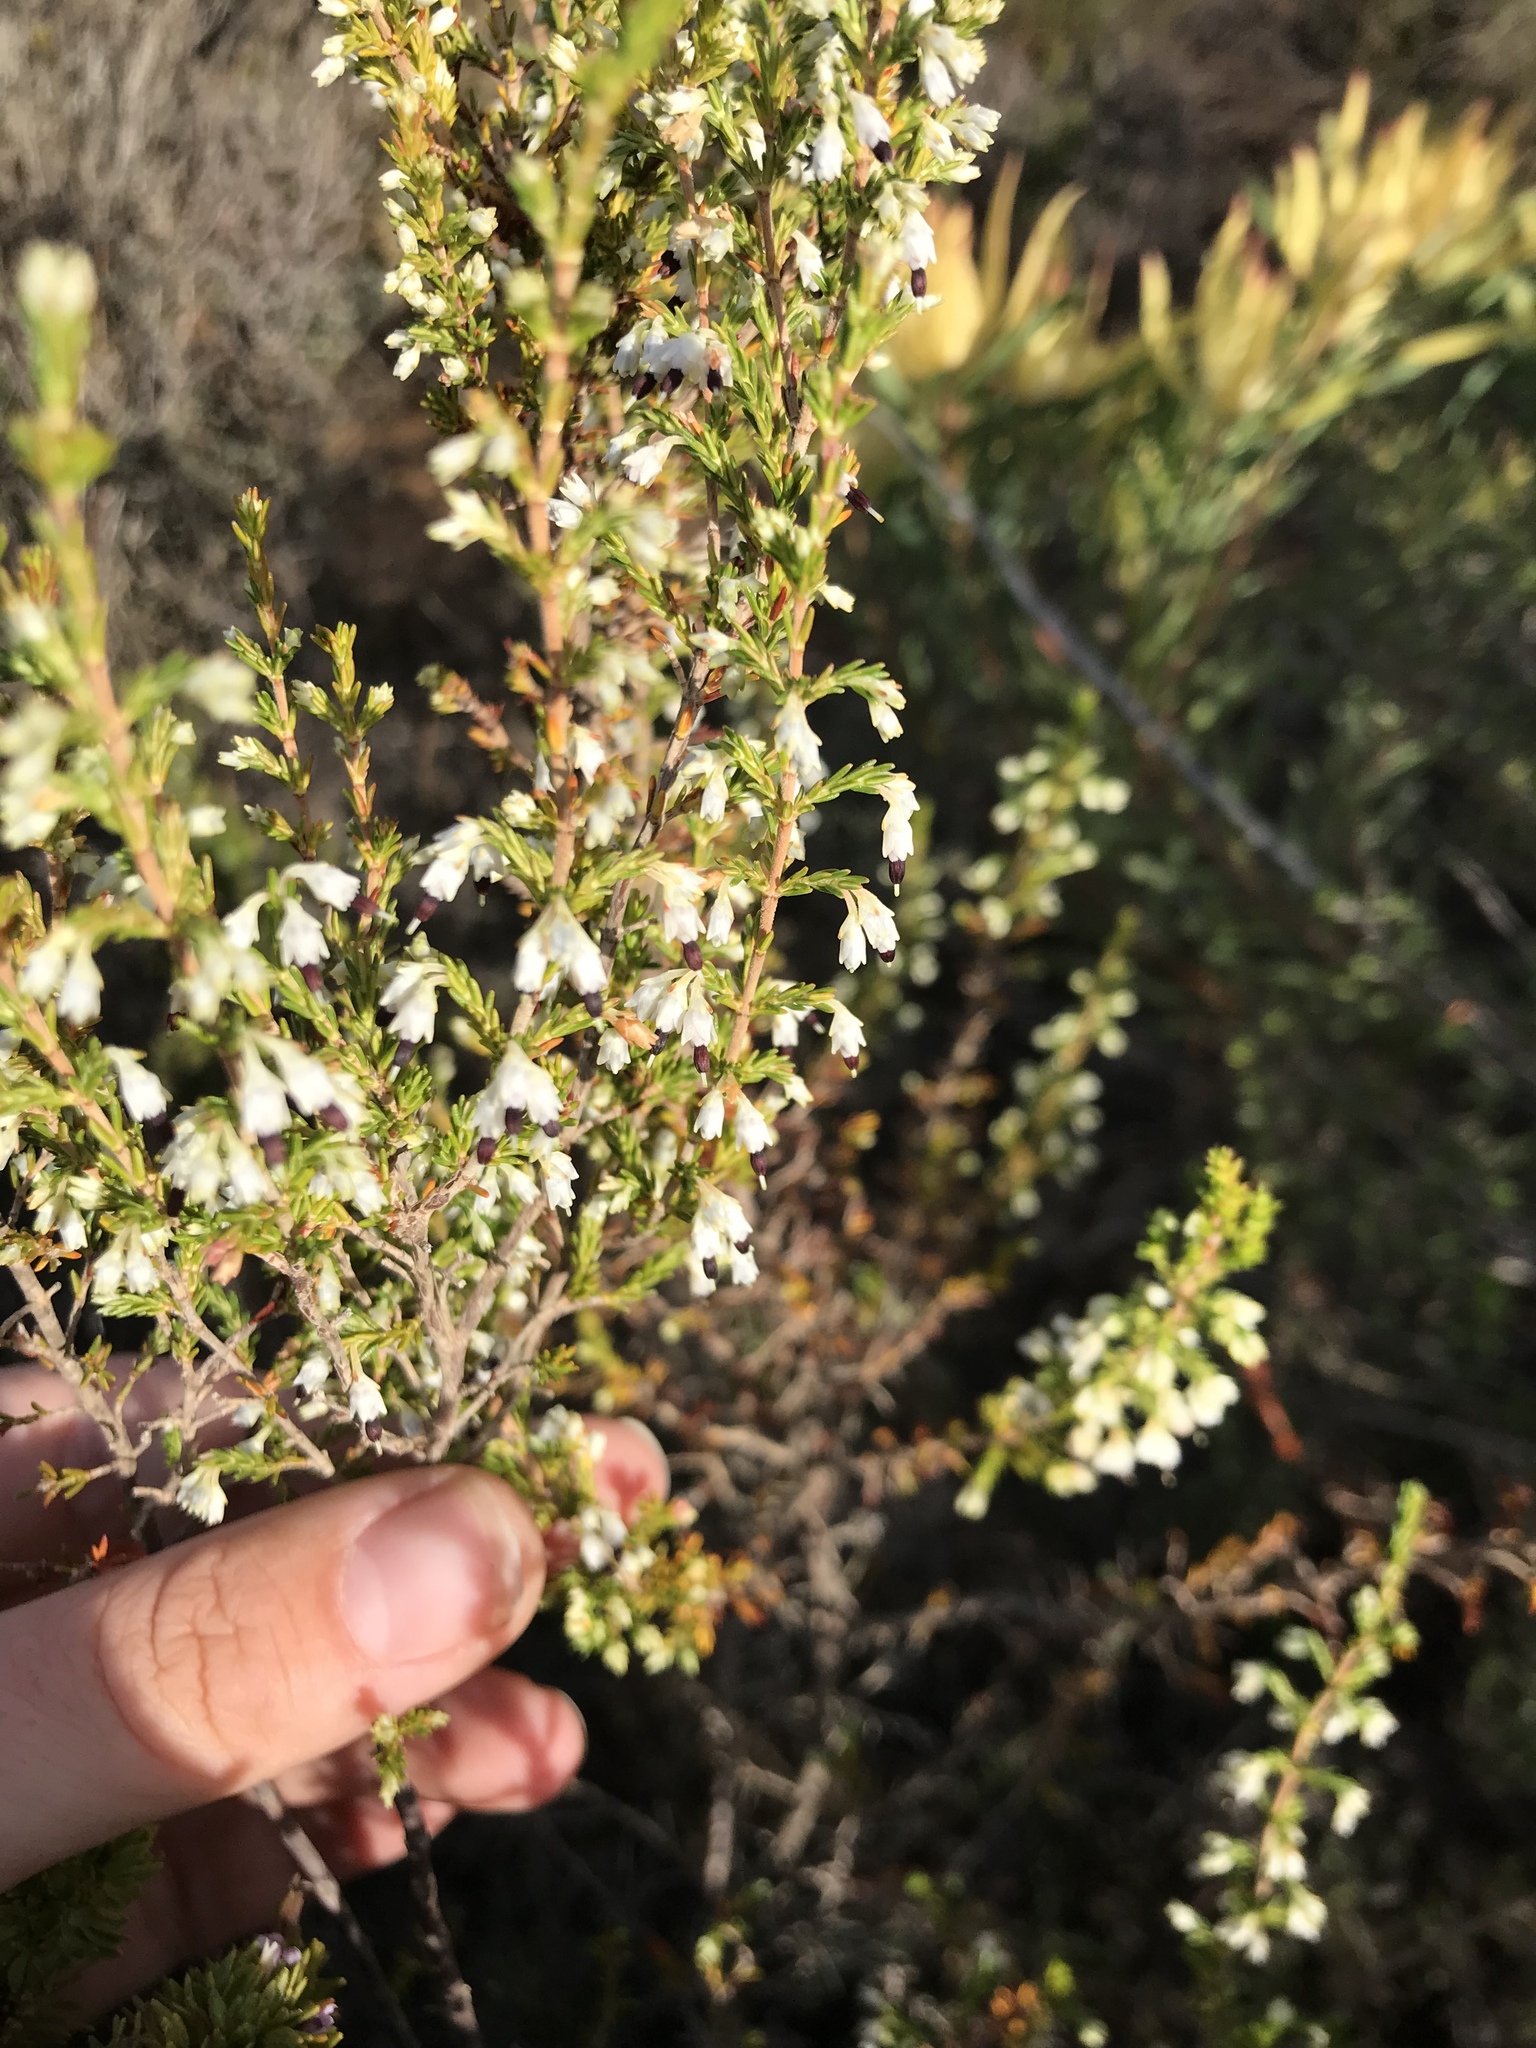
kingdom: Plantae
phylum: Tracheophyta
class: Magnoliopsida
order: Ericales
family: Ericaceae
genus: Erica
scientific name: Erica imbricata
